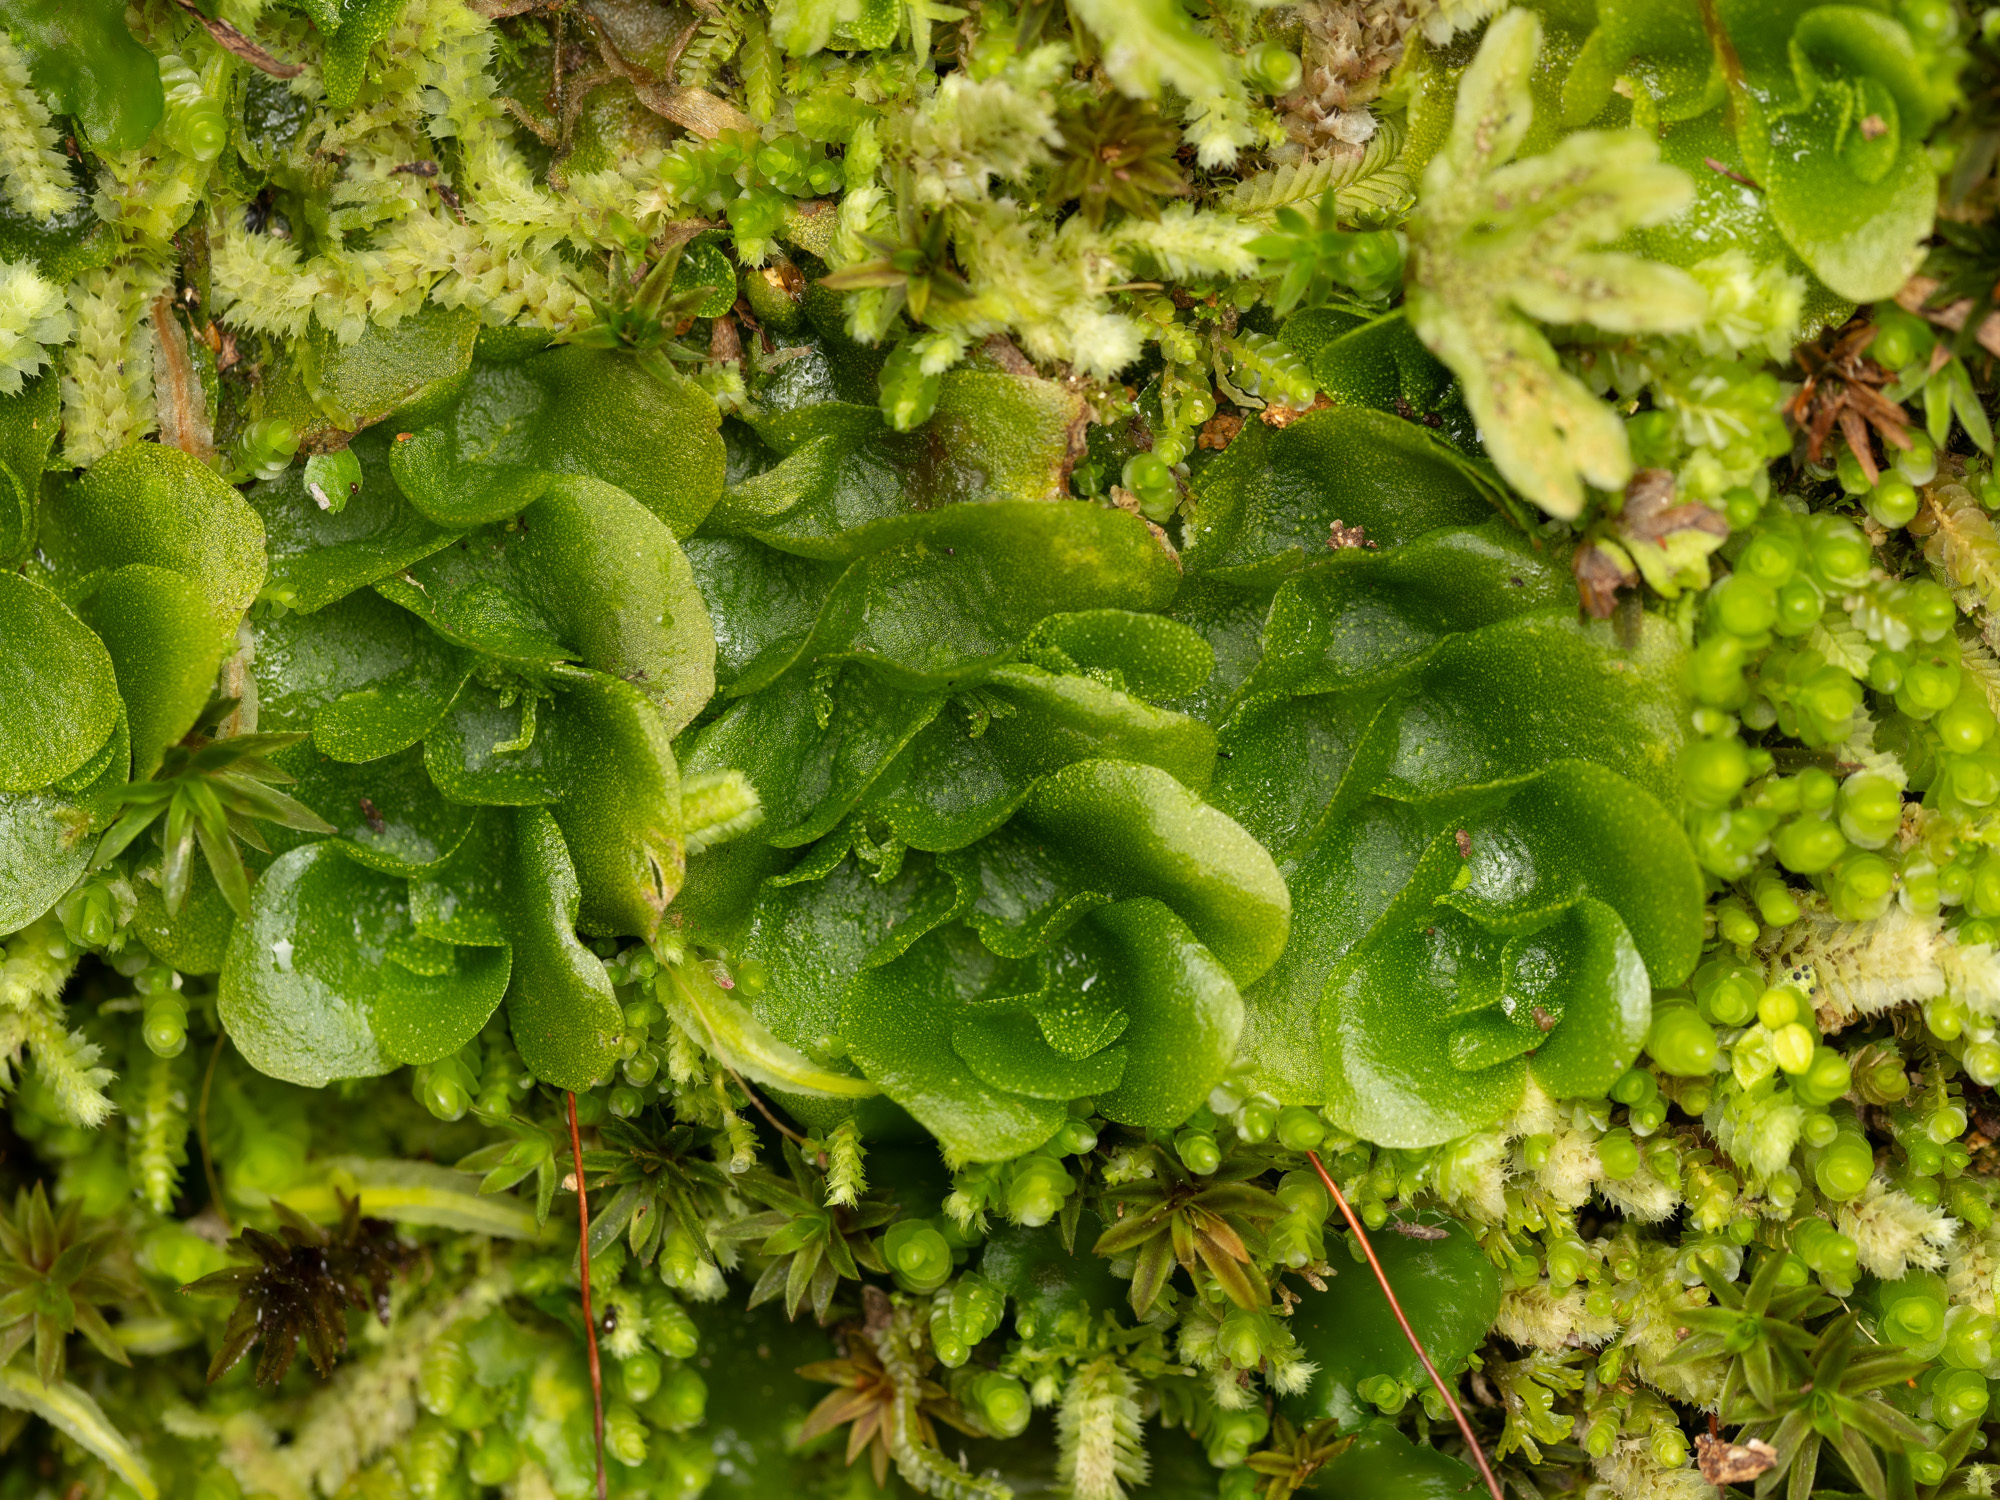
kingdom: Plantae
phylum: Marchantiophyta
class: Haplomitriopsida
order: Treubiales
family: Treubiaceae
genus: Treubia
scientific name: Treubia lacunosa
